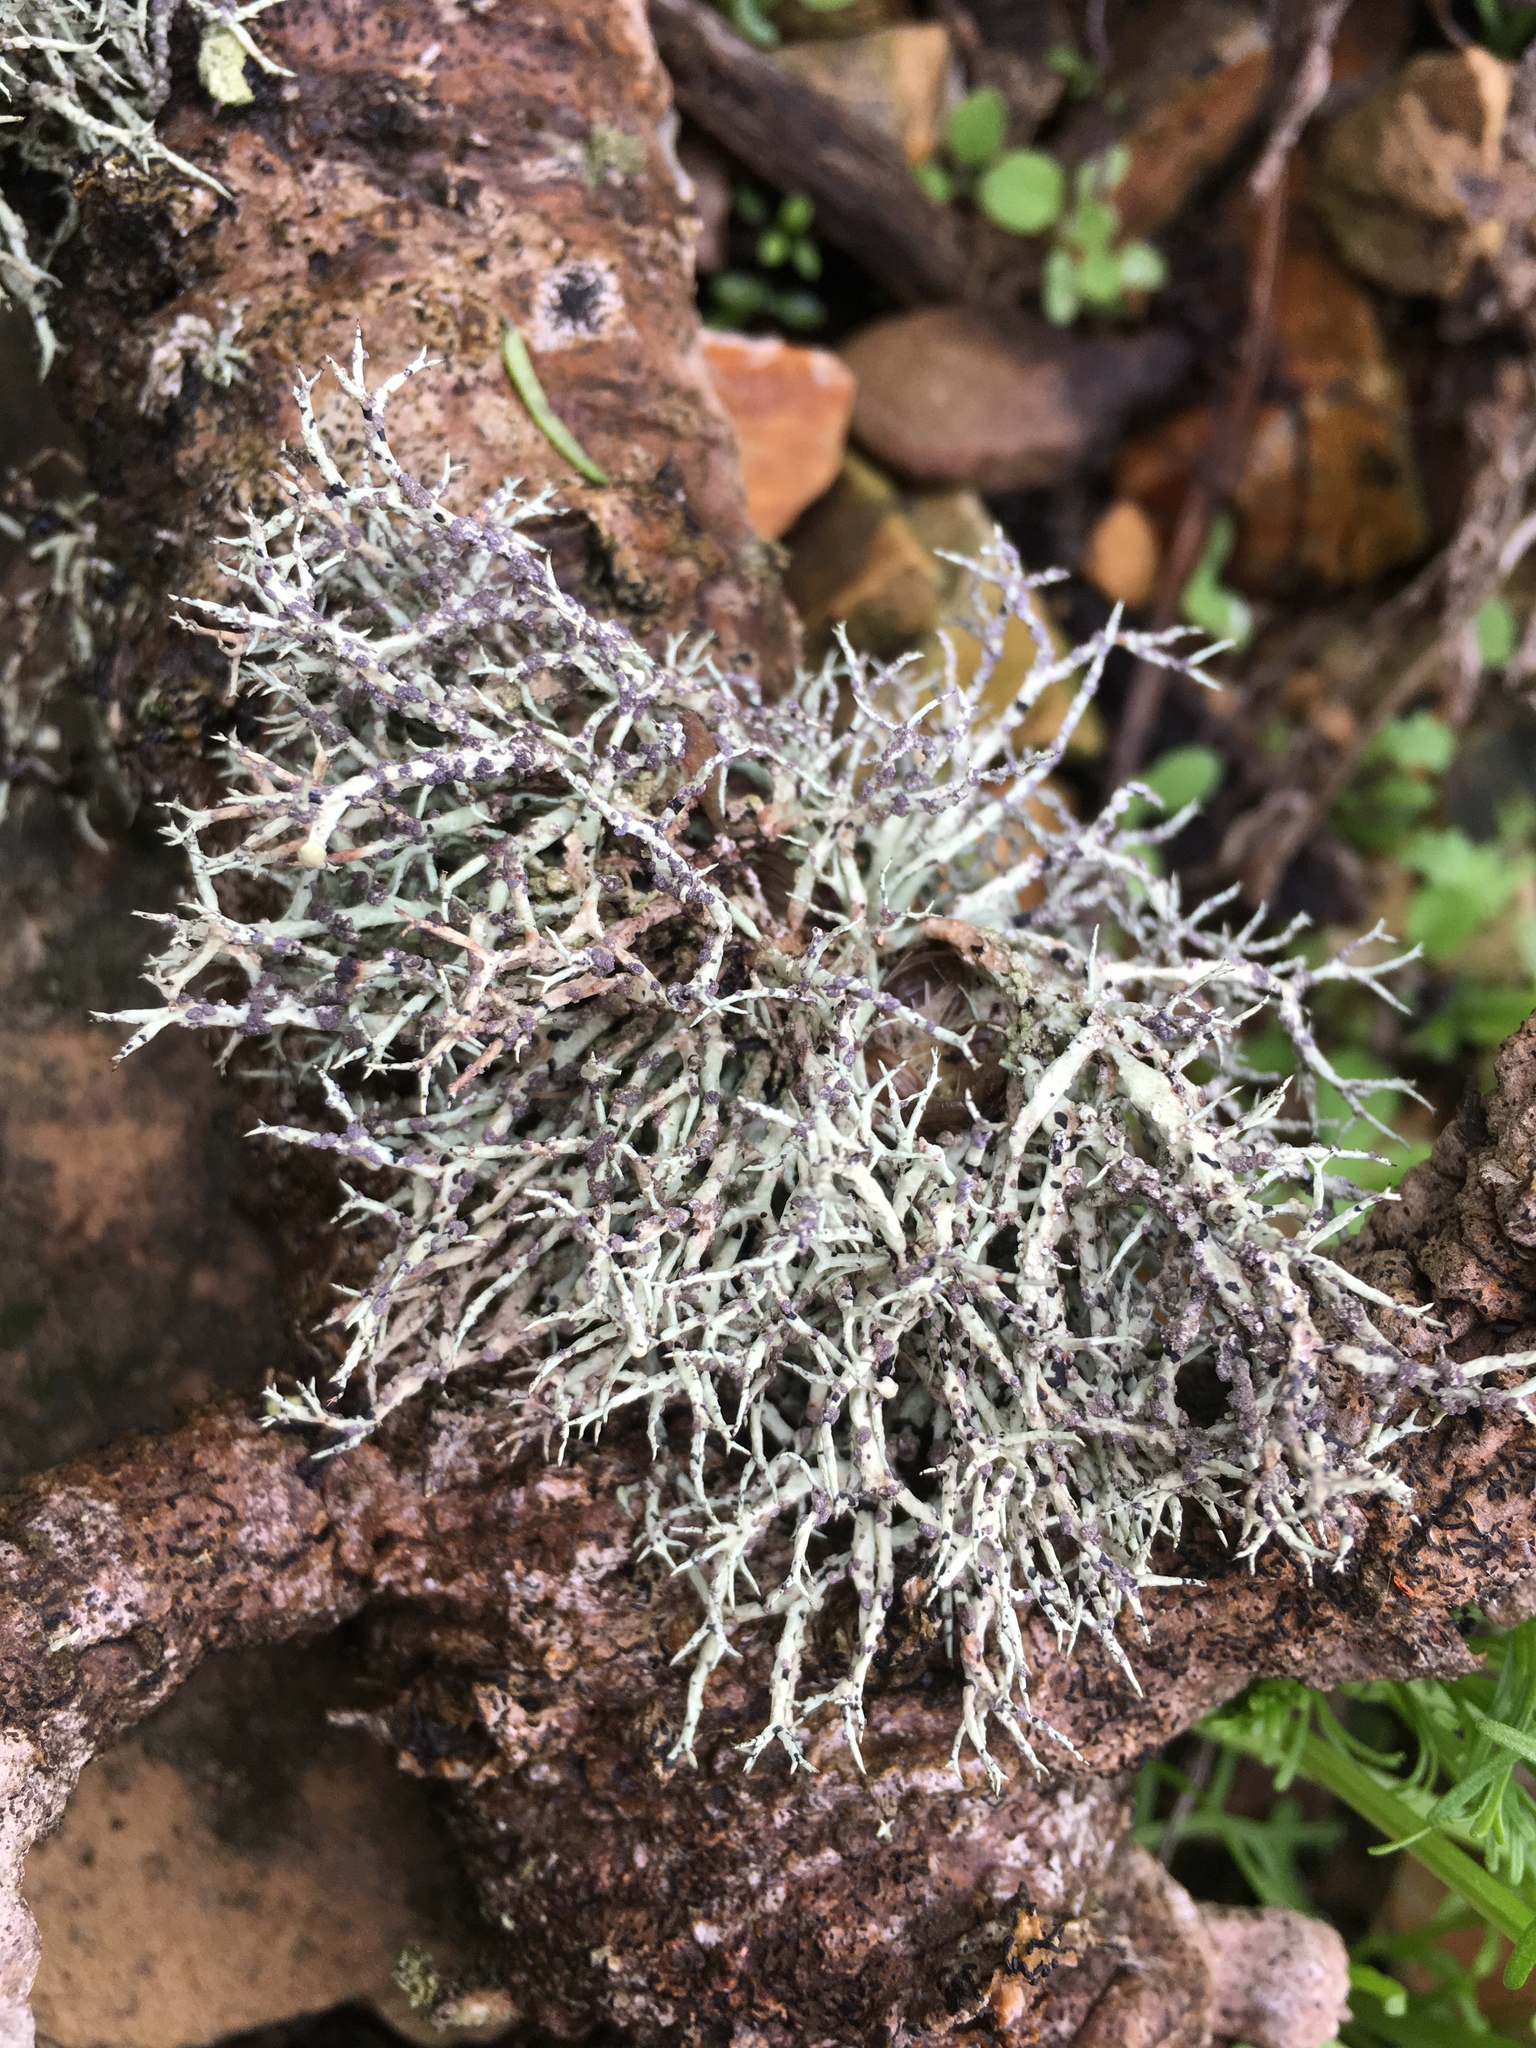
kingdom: Fungi
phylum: Ascomycota
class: Lecanoromycetes
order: Lecanorales
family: Ramalinaceae
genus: Niebla
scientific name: Niebla cephalota
